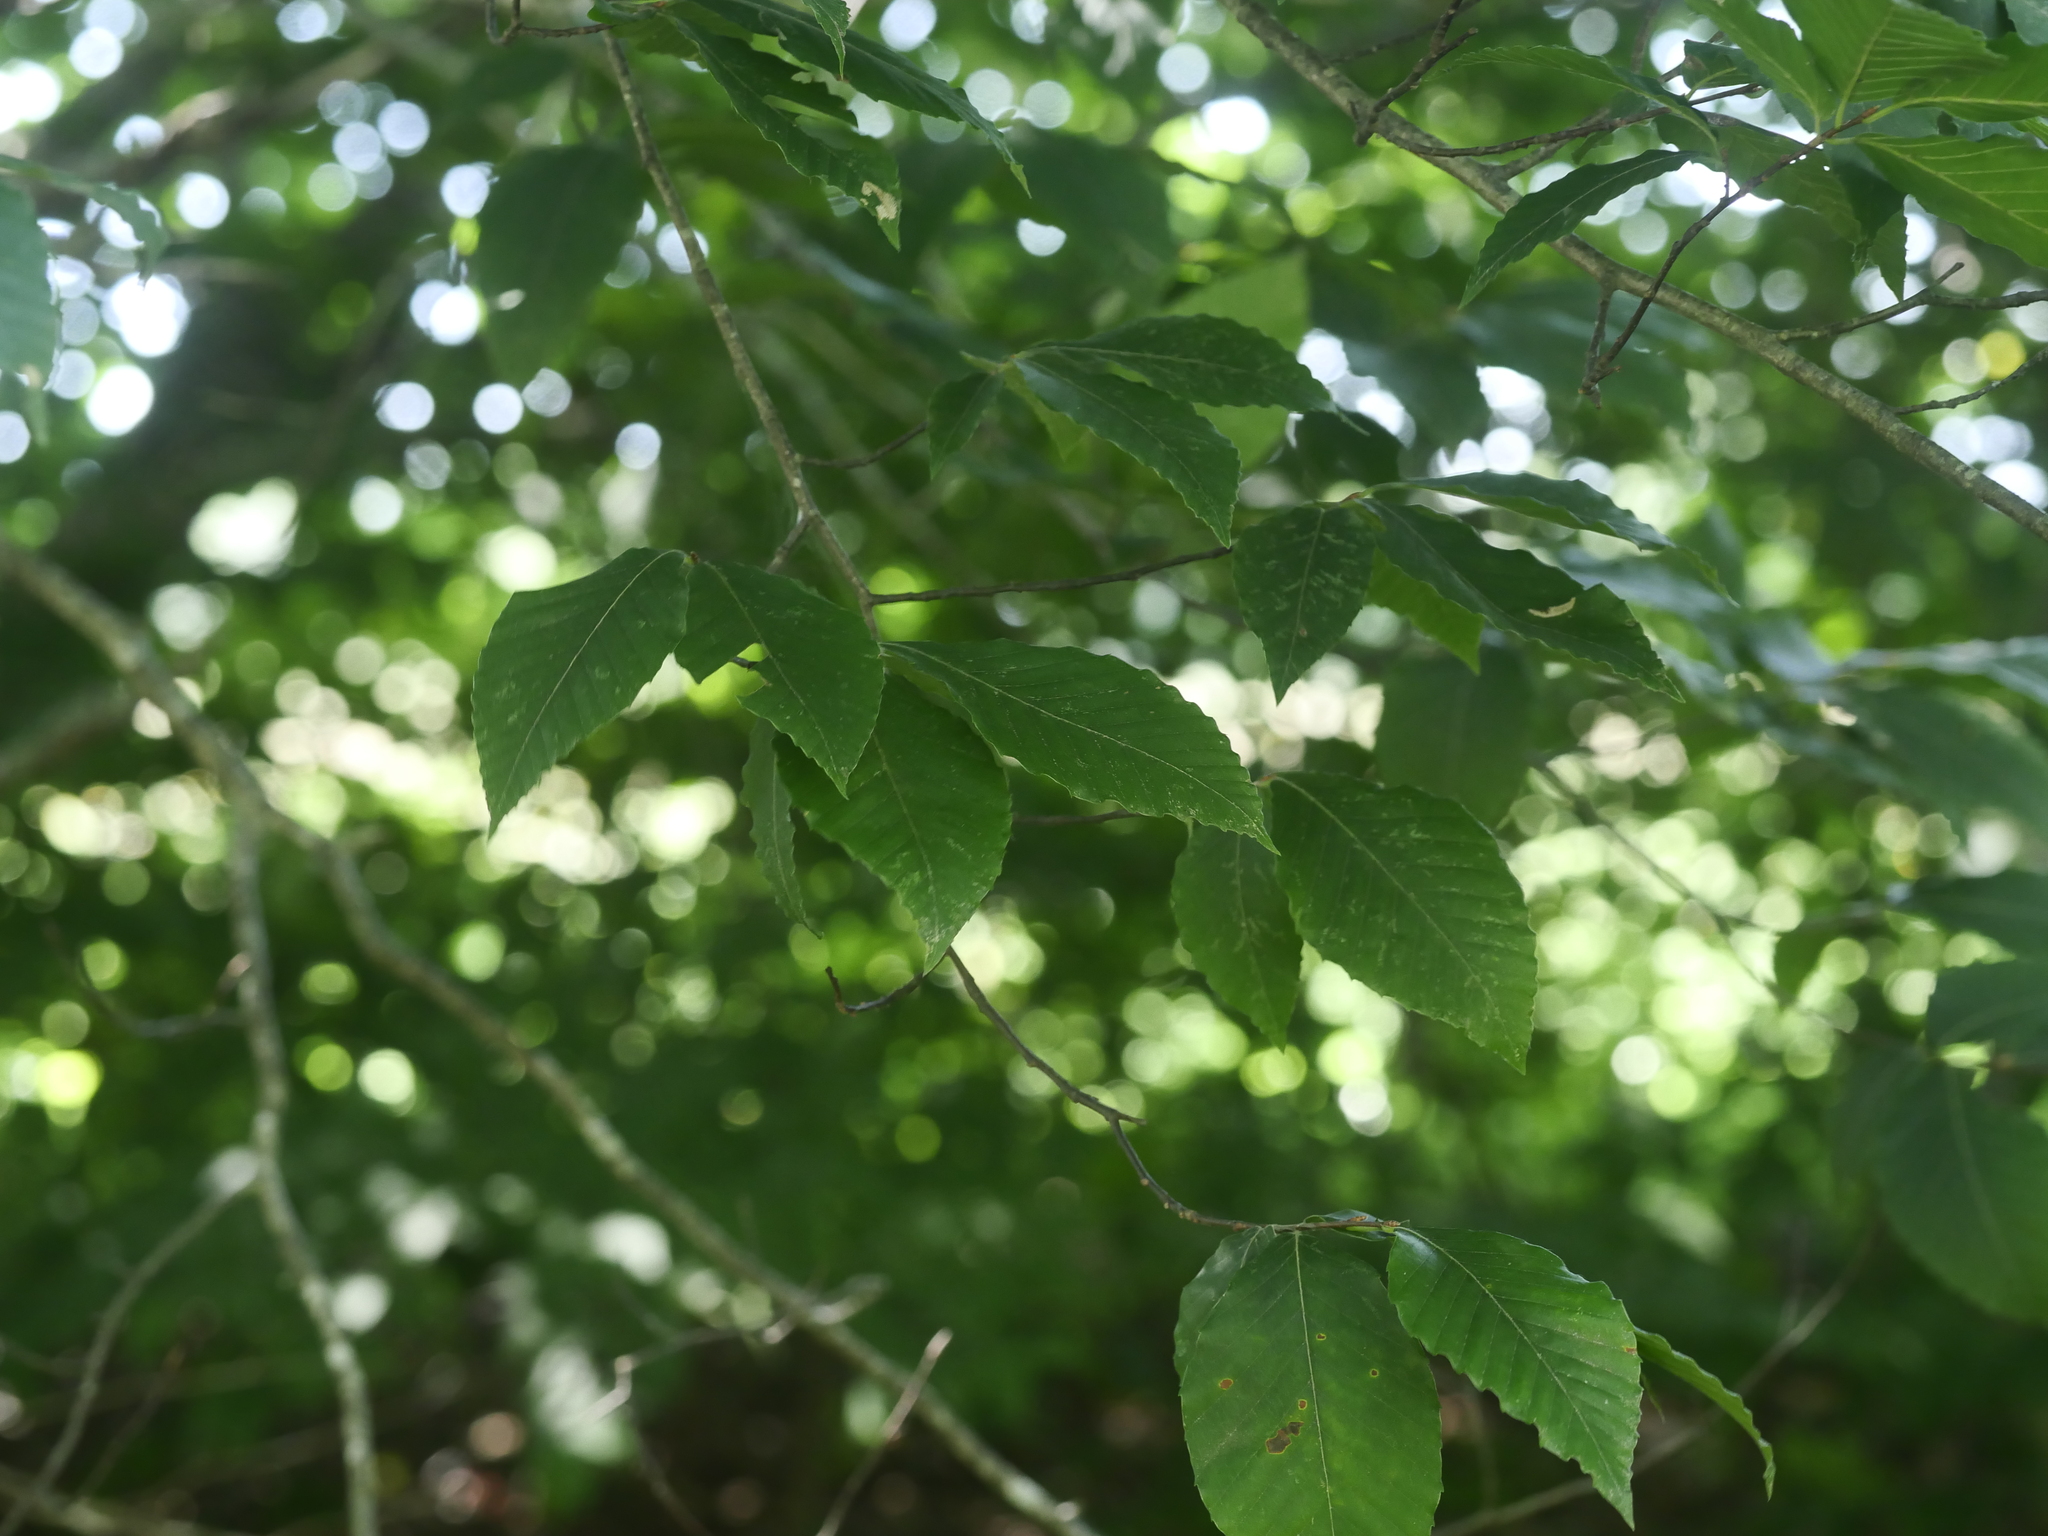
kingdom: Plantae
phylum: Tracheophyta
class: Magnoliopsida
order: Fagales
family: Fagaceae
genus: Fagus
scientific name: Fagus grandifolia
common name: American beech
